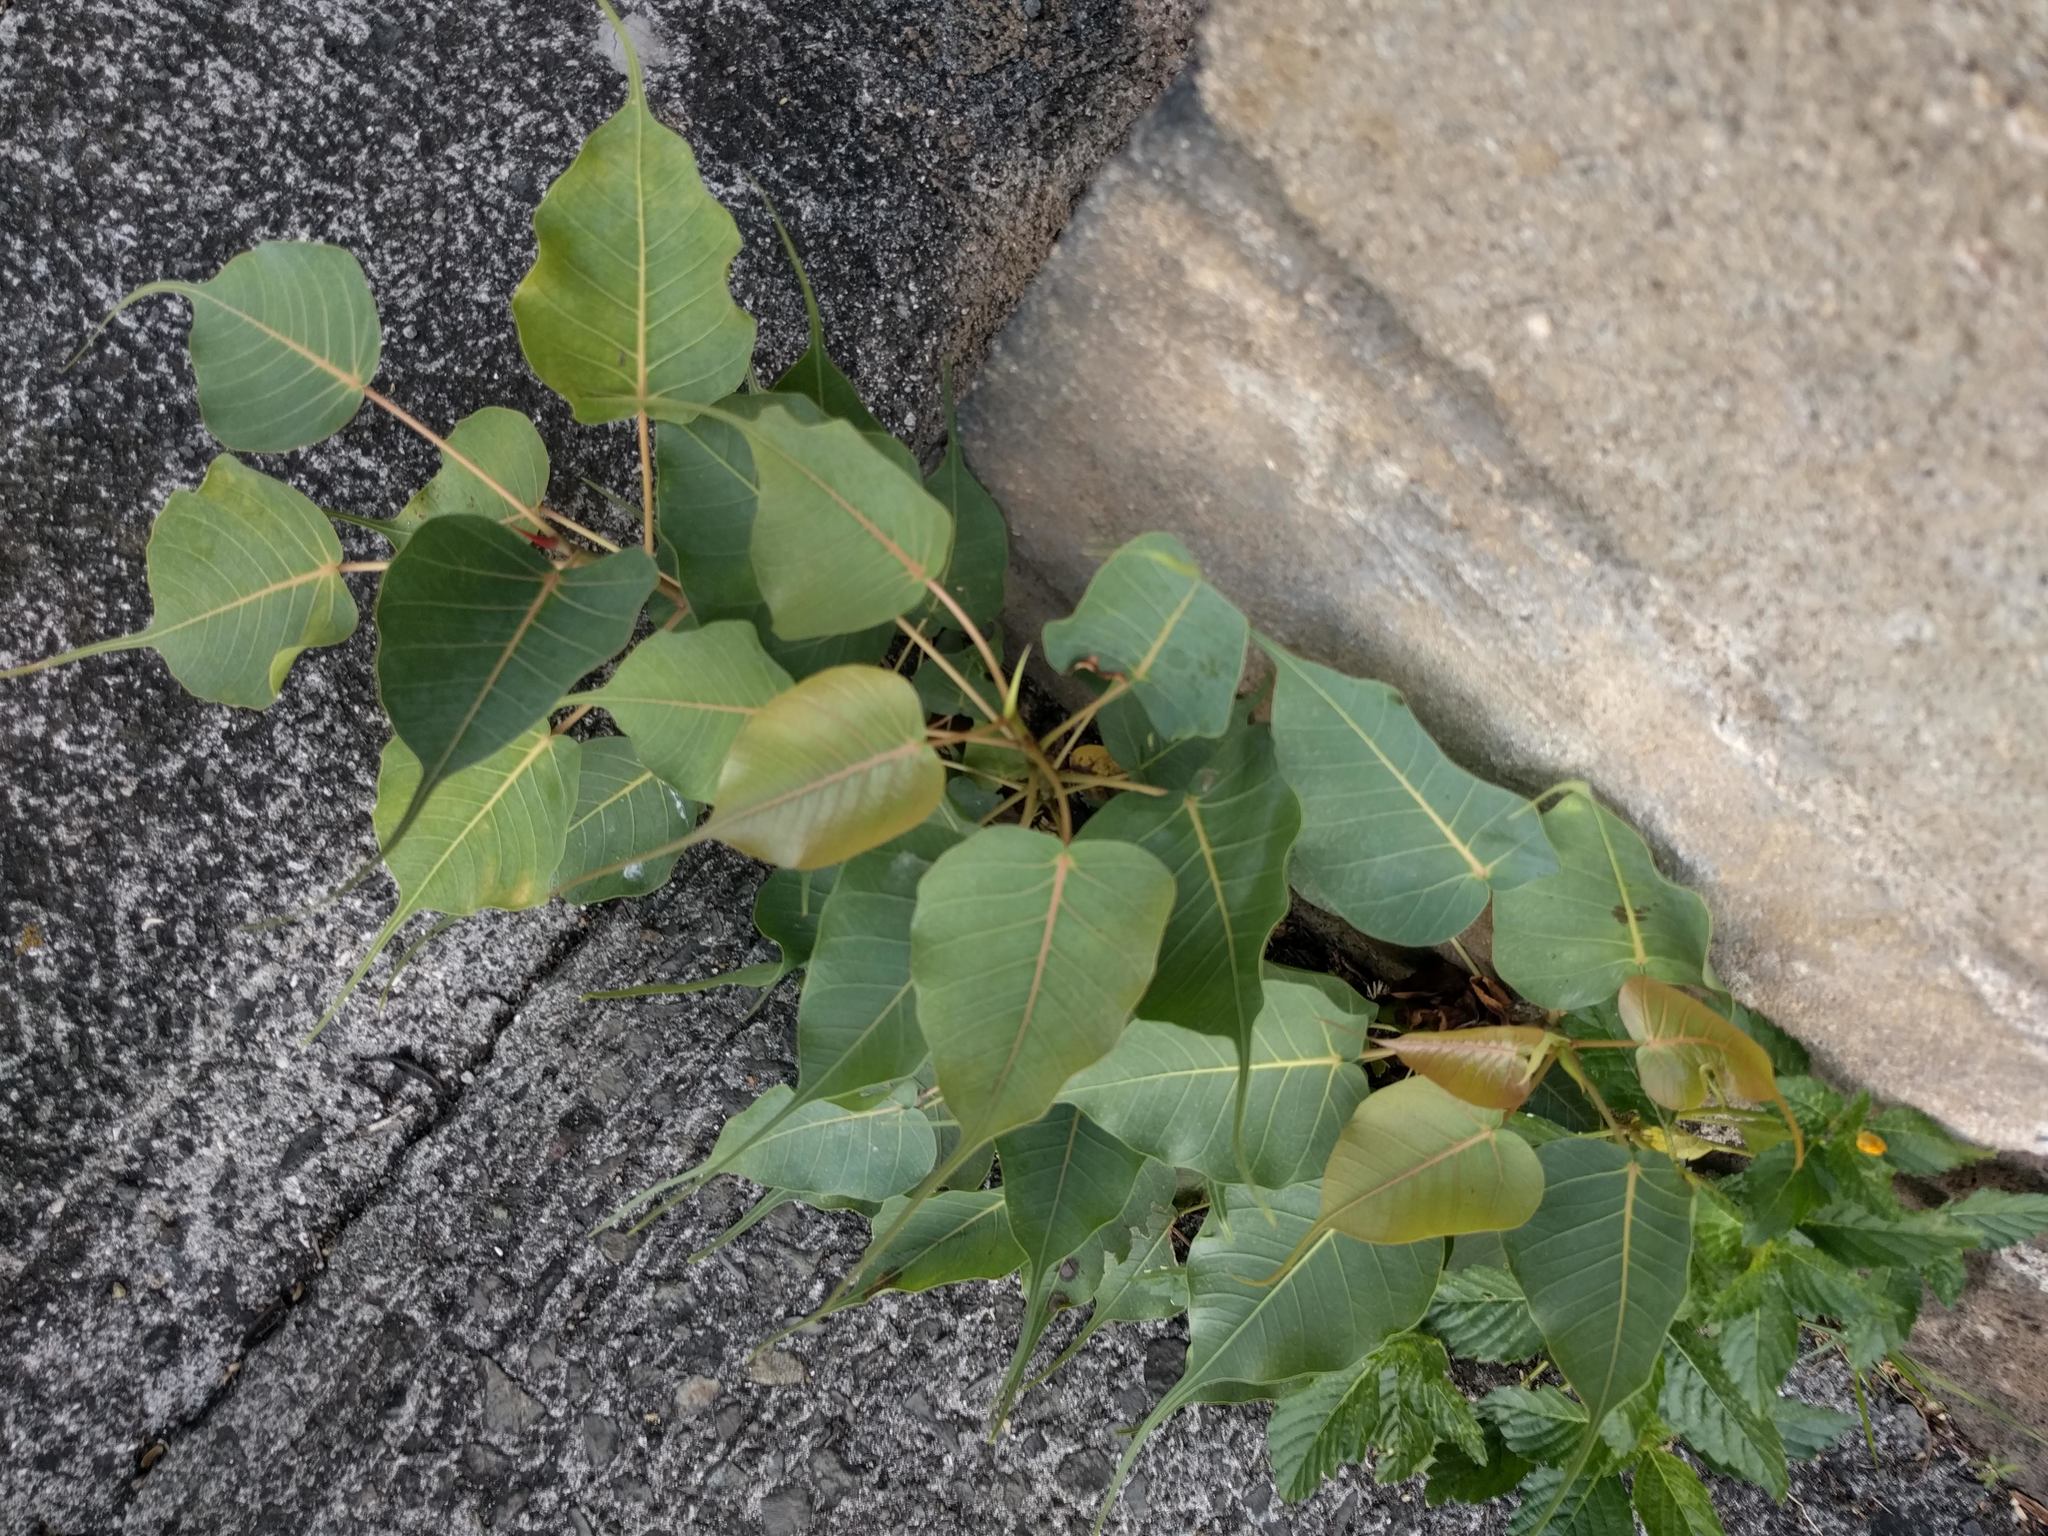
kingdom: Plantae
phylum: Tracheophyta
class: Magnoliopsida
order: Rosales
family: Moraceae
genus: Ficus
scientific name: Ficus religiosa
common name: Bodhi tree
